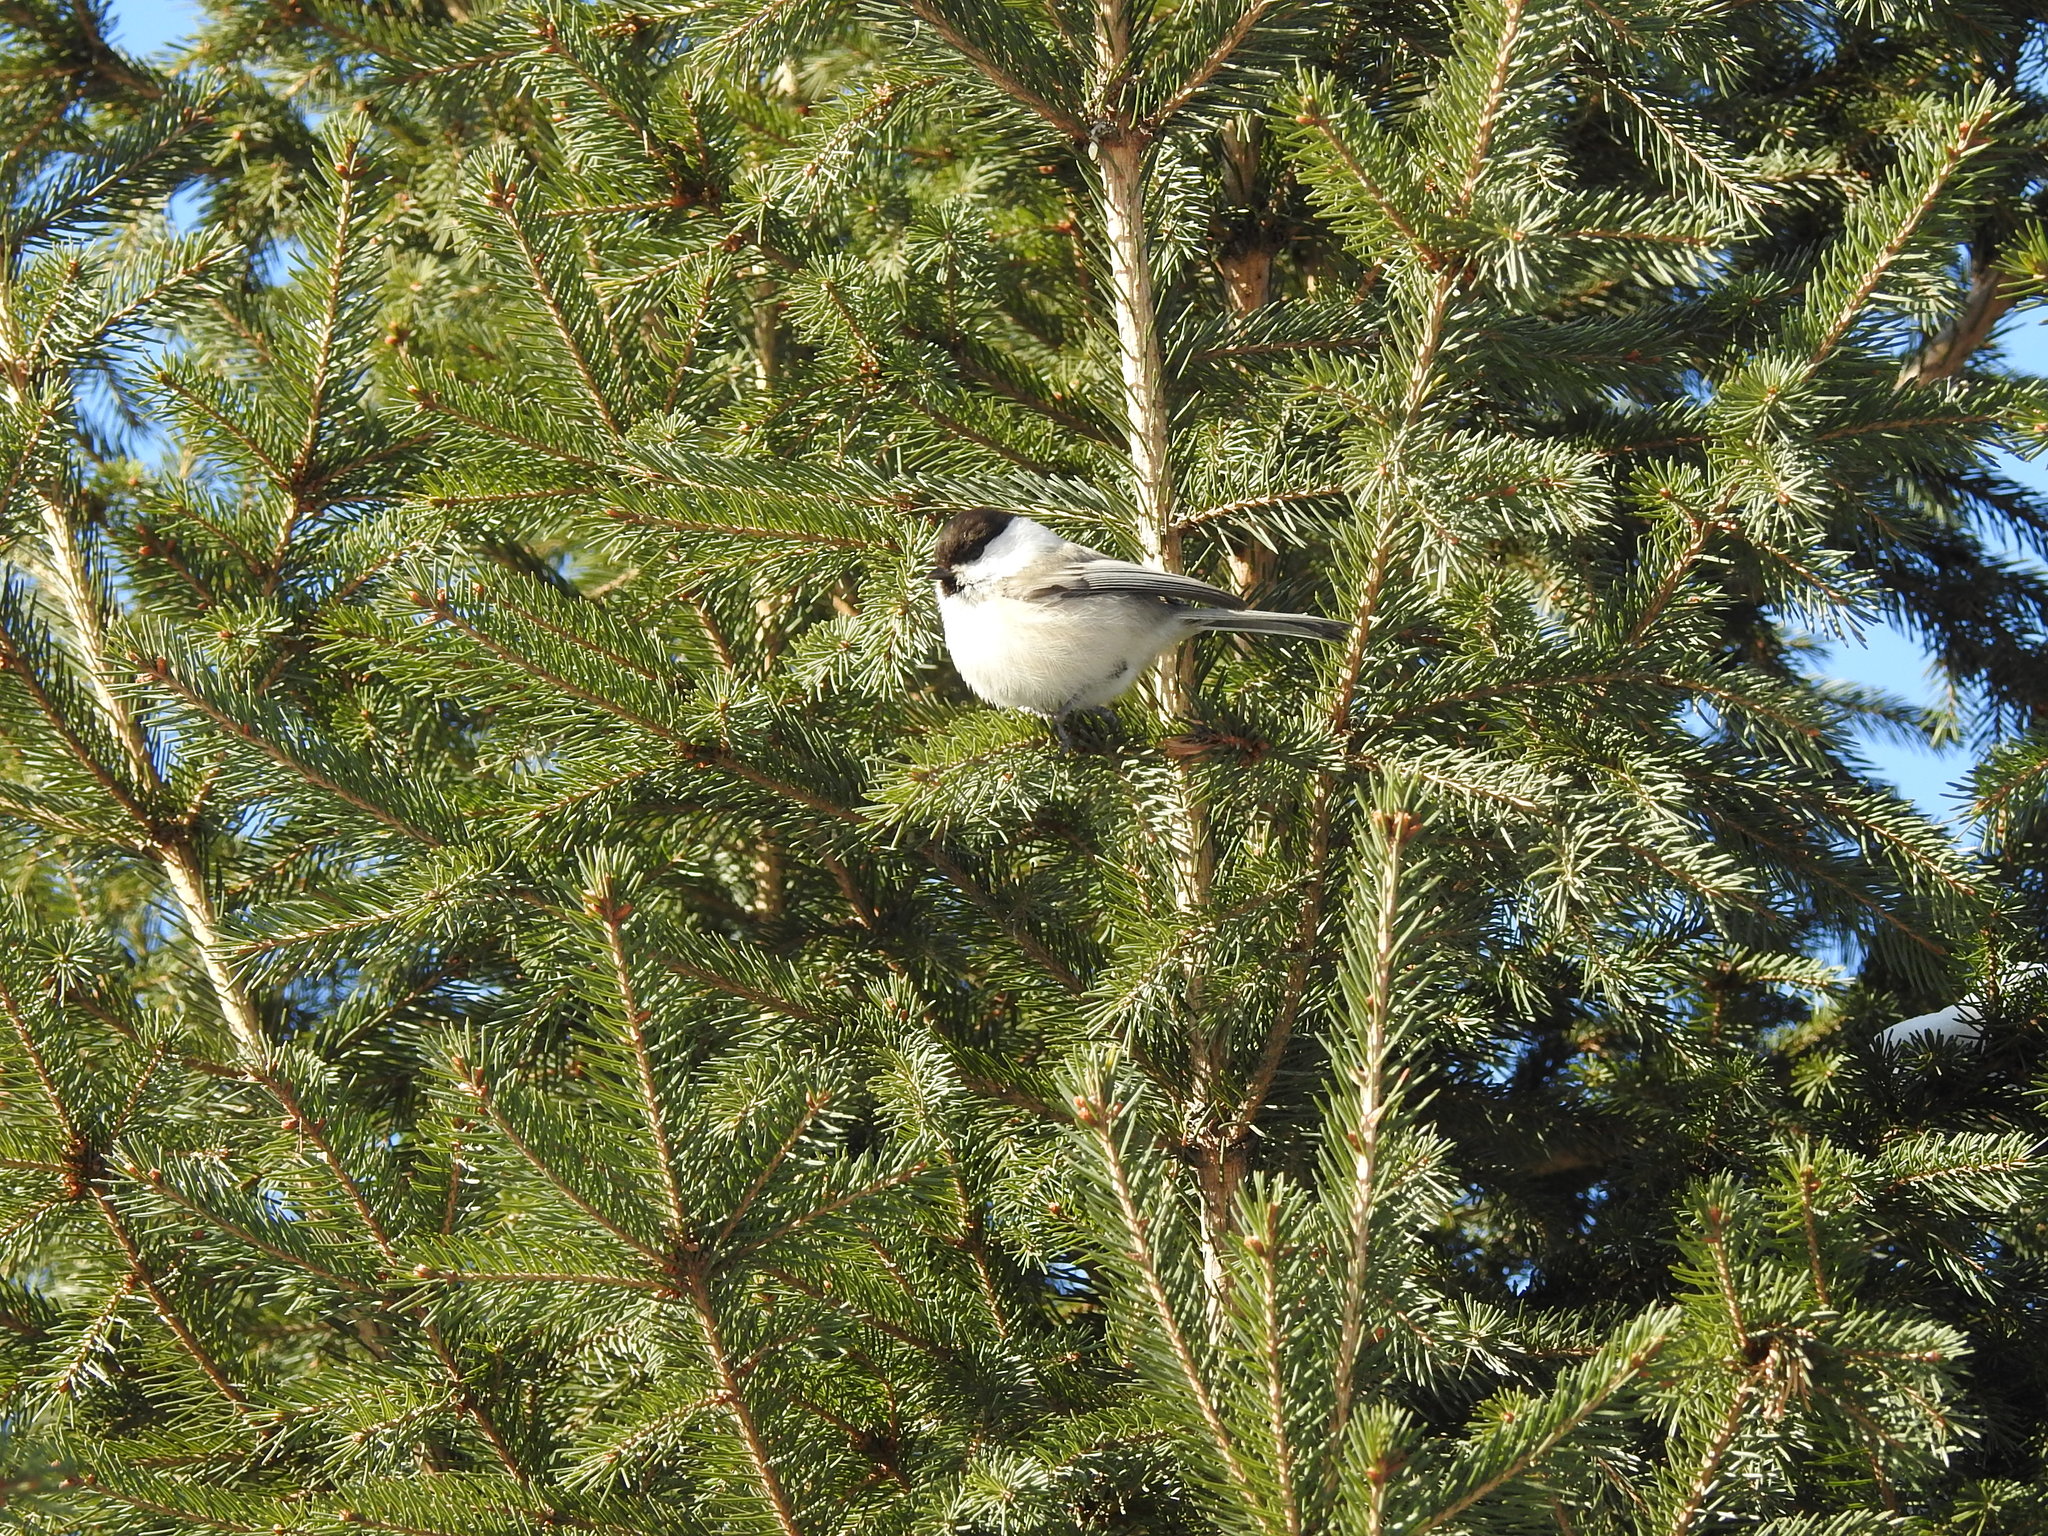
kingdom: Animalia
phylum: Chordata
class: Aves
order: Passeriformes
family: Paridae
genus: Poecile
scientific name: Poecile montanus
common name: Willow tit
